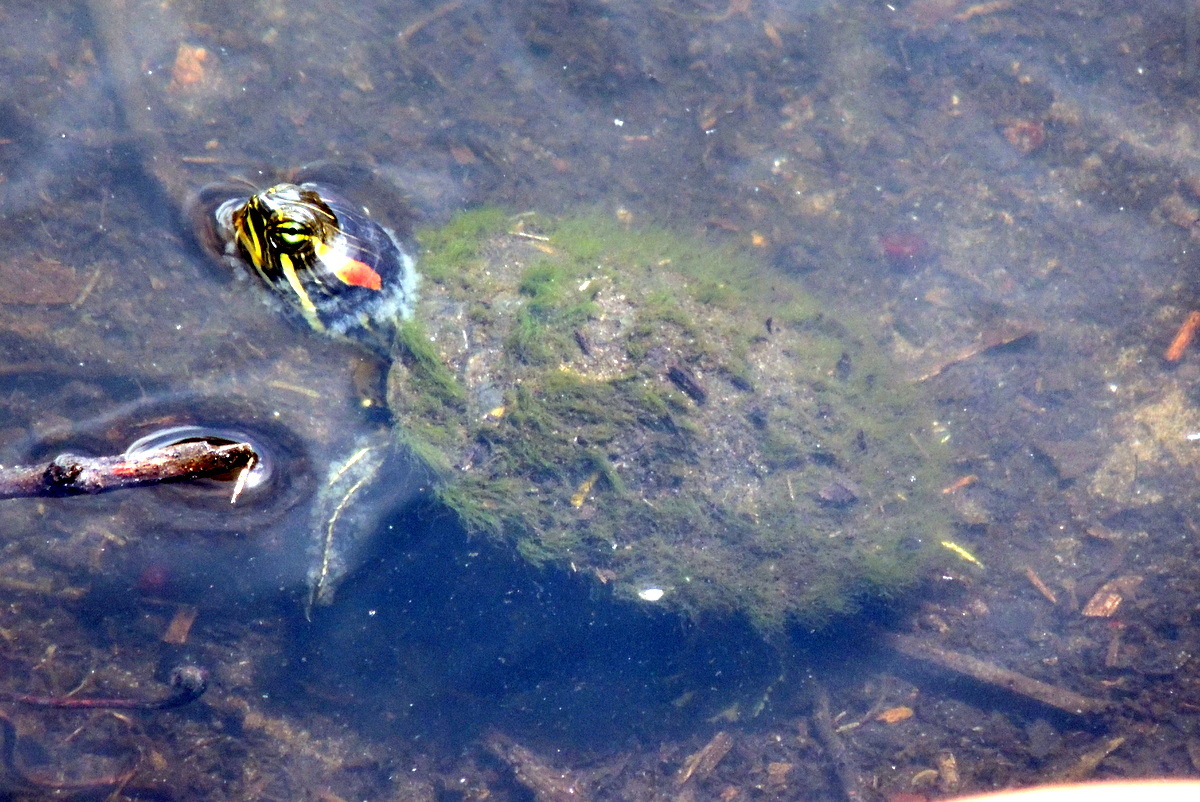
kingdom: Animalia
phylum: Chordata
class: Testudines
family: Emydidae
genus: Trachemys
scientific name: Trachemys scripta
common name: Slider
